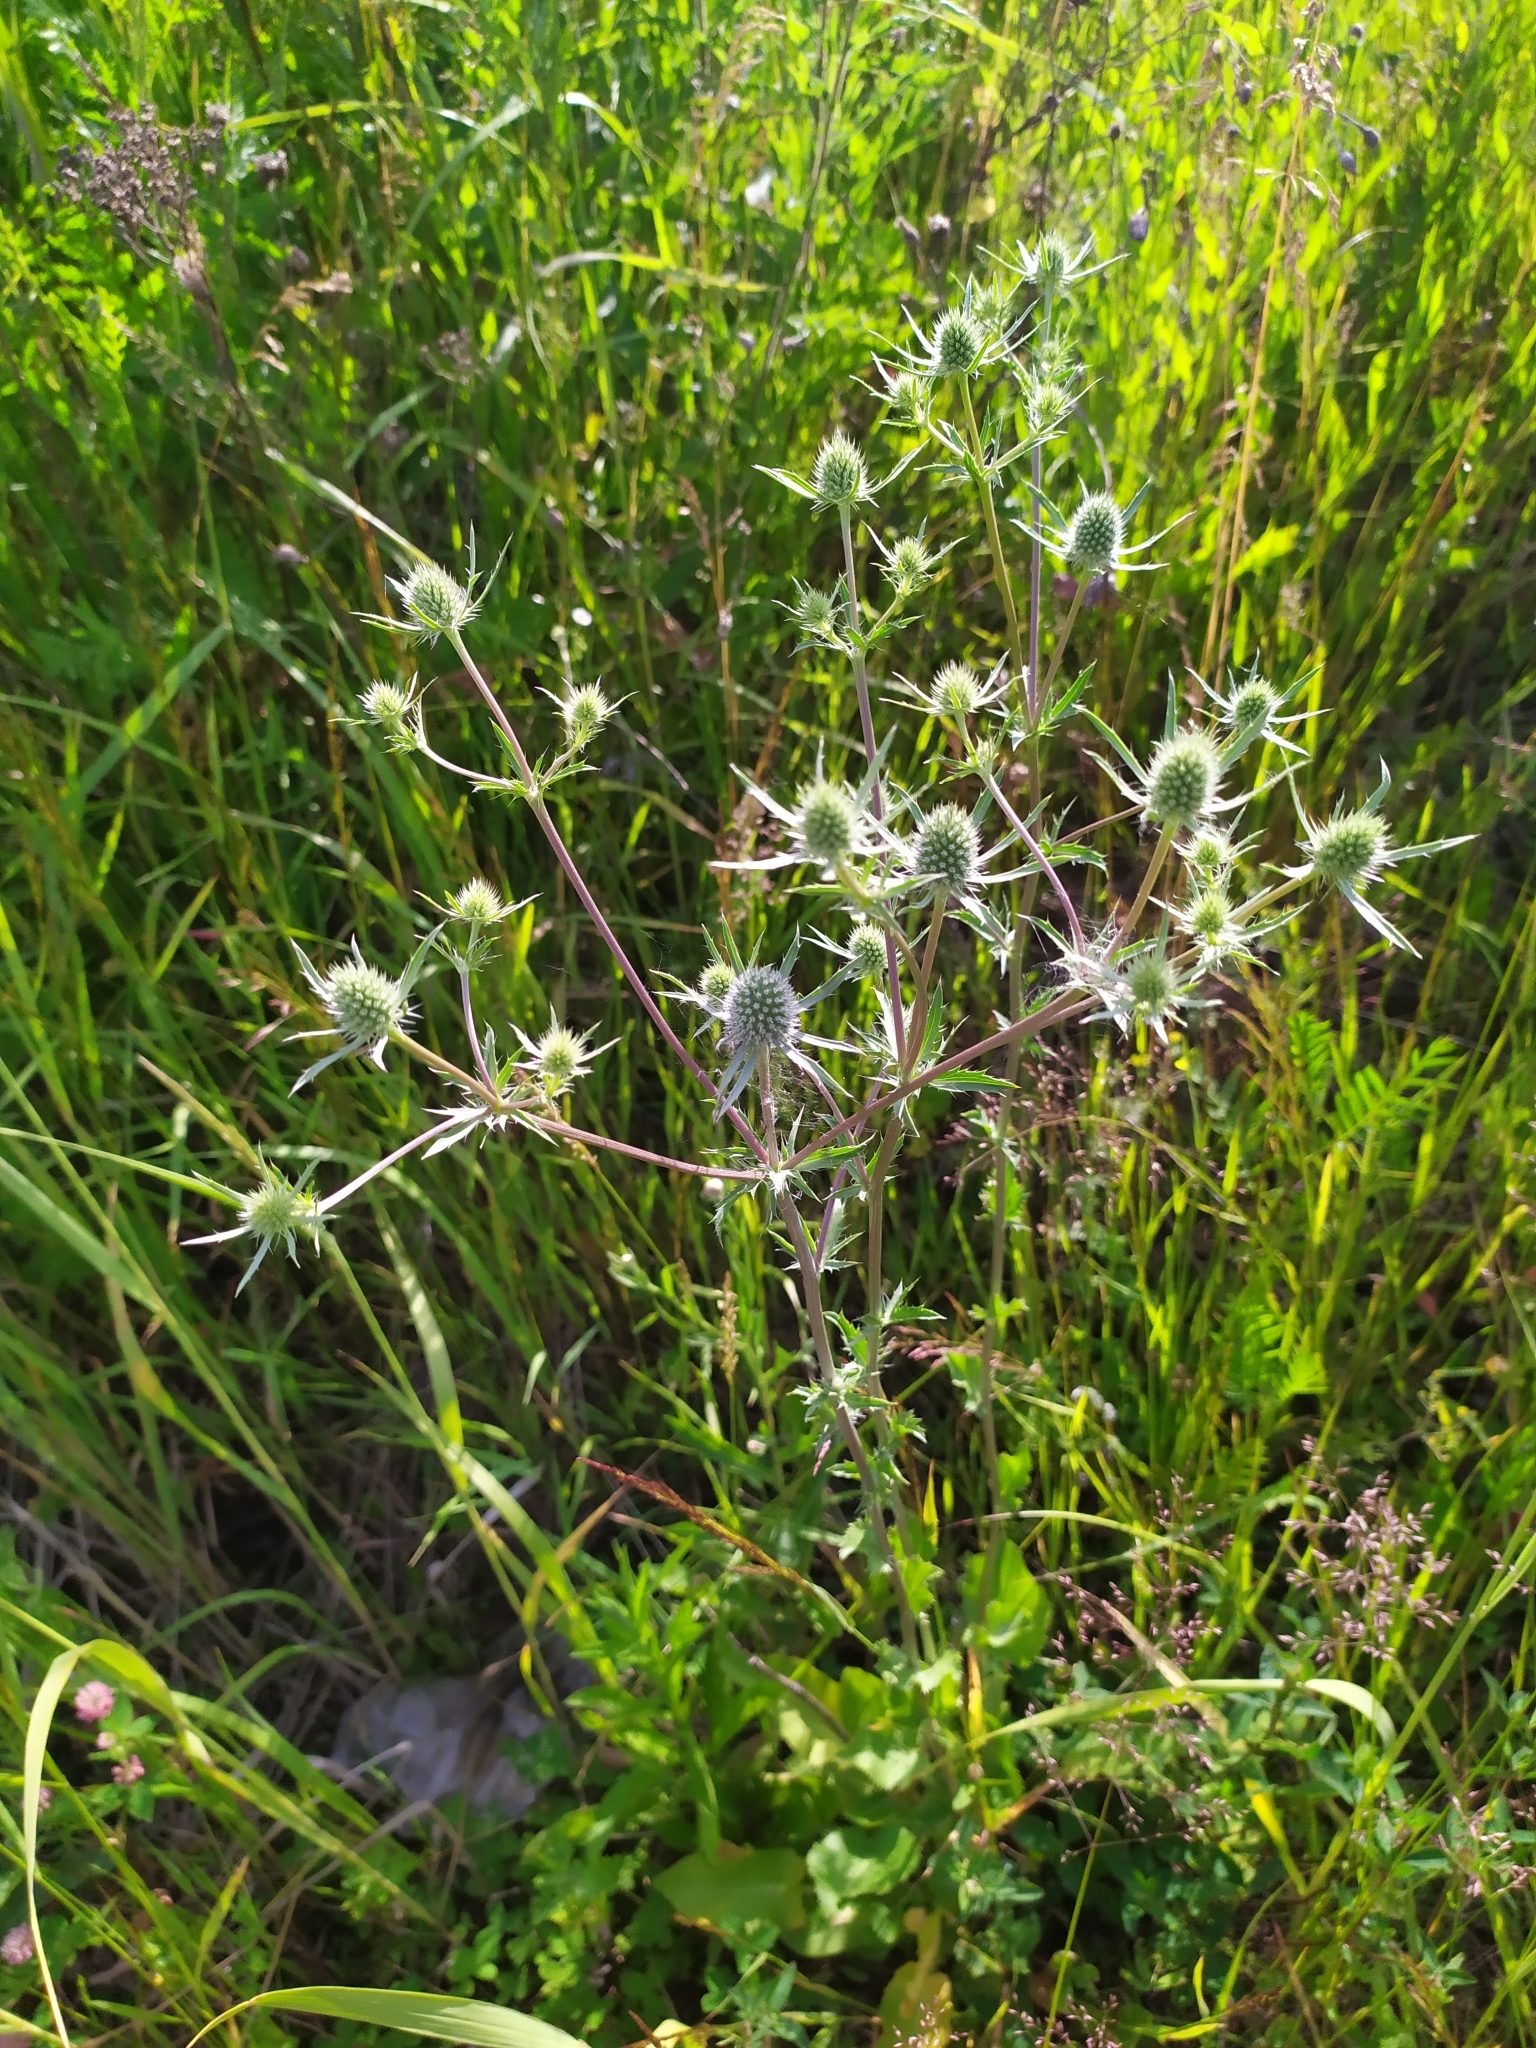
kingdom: Plantae
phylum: Tracheophyta
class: Magnoliopsida
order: Apiales
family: Apiaceae
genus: Eryngium
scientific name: Eryngium planum
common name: Blue eryngo
